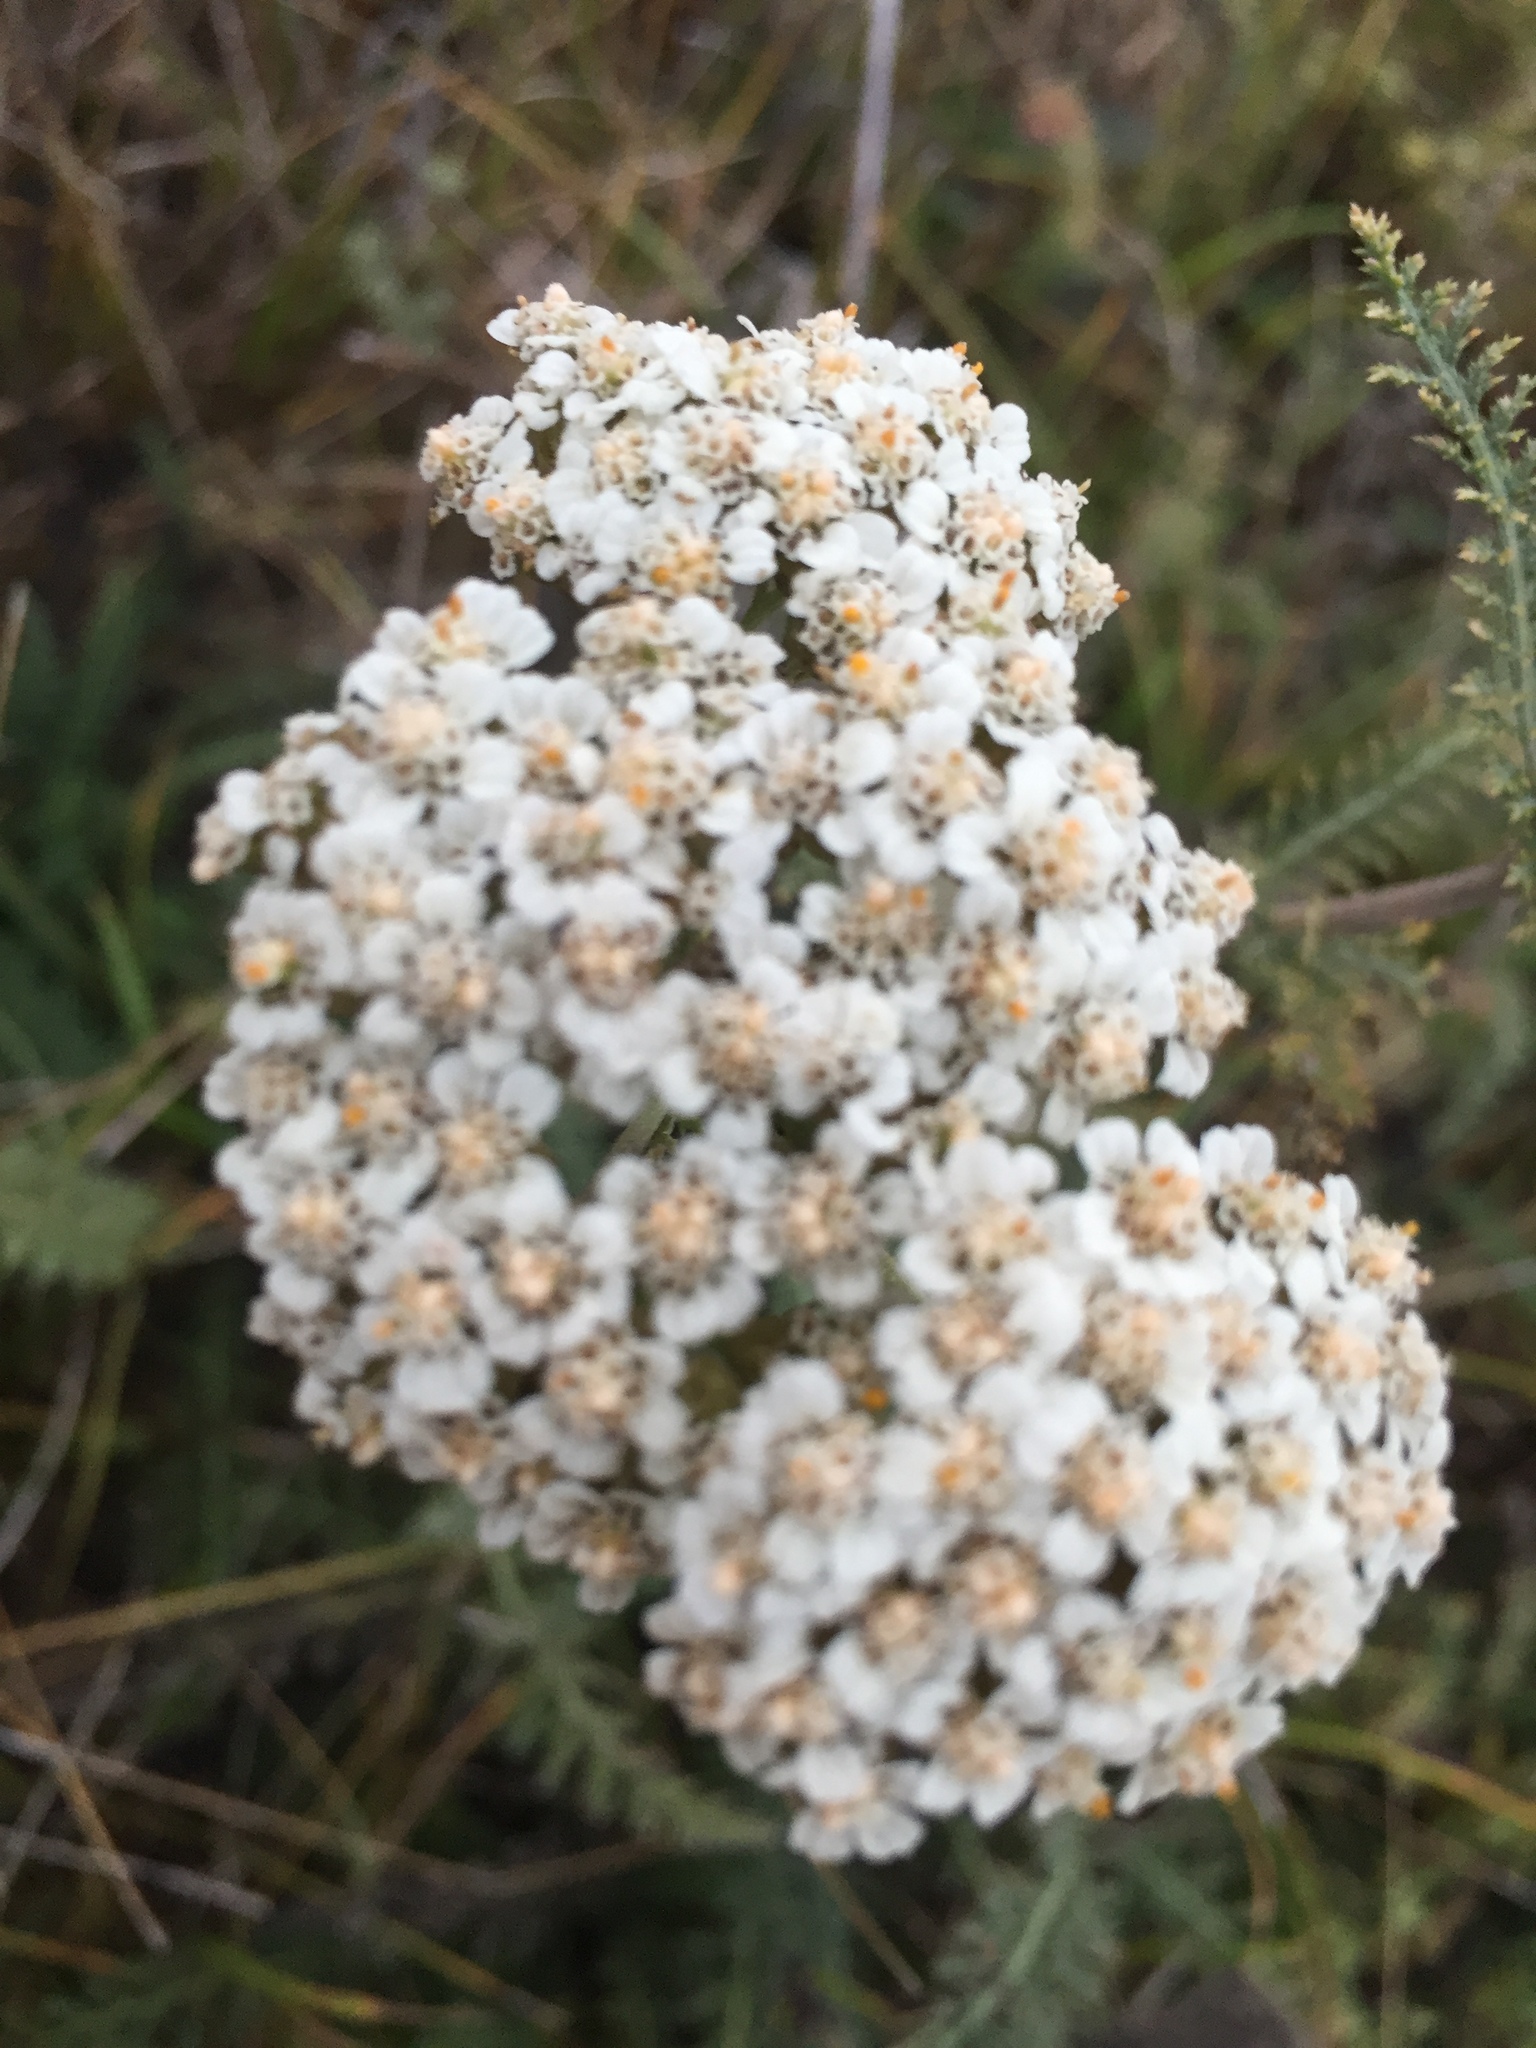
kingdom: Plantae
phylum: Tracheophyta
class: Magnoliopsida
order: Asterales
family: Asteraceae
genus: Achillea
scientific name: Achillea millefolium
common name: Yarrow
